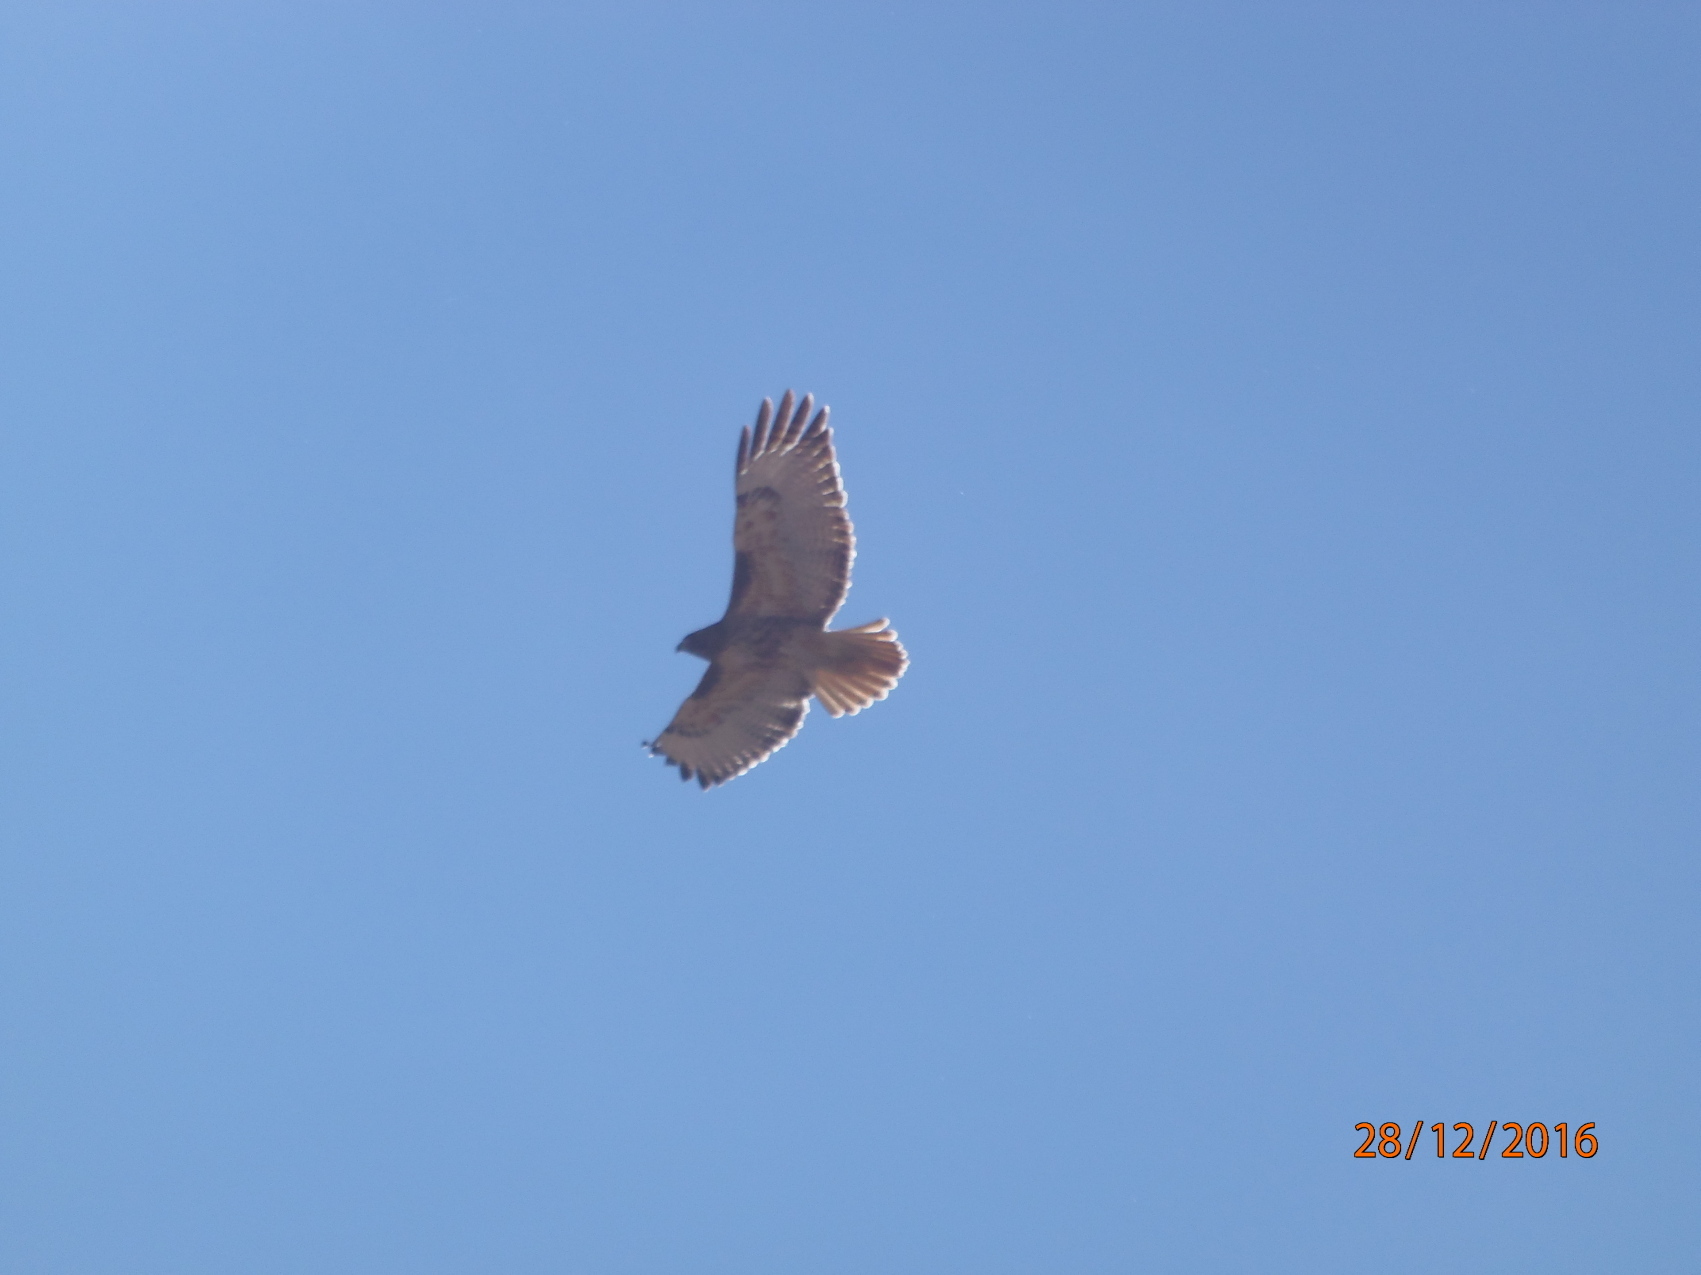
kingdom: Animalia
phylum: Chordata
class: Aves
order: Accipitriformes
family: Accipitridae
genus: Buteo
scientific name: Buteo jamaicensis
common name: Red-tailed hawk
